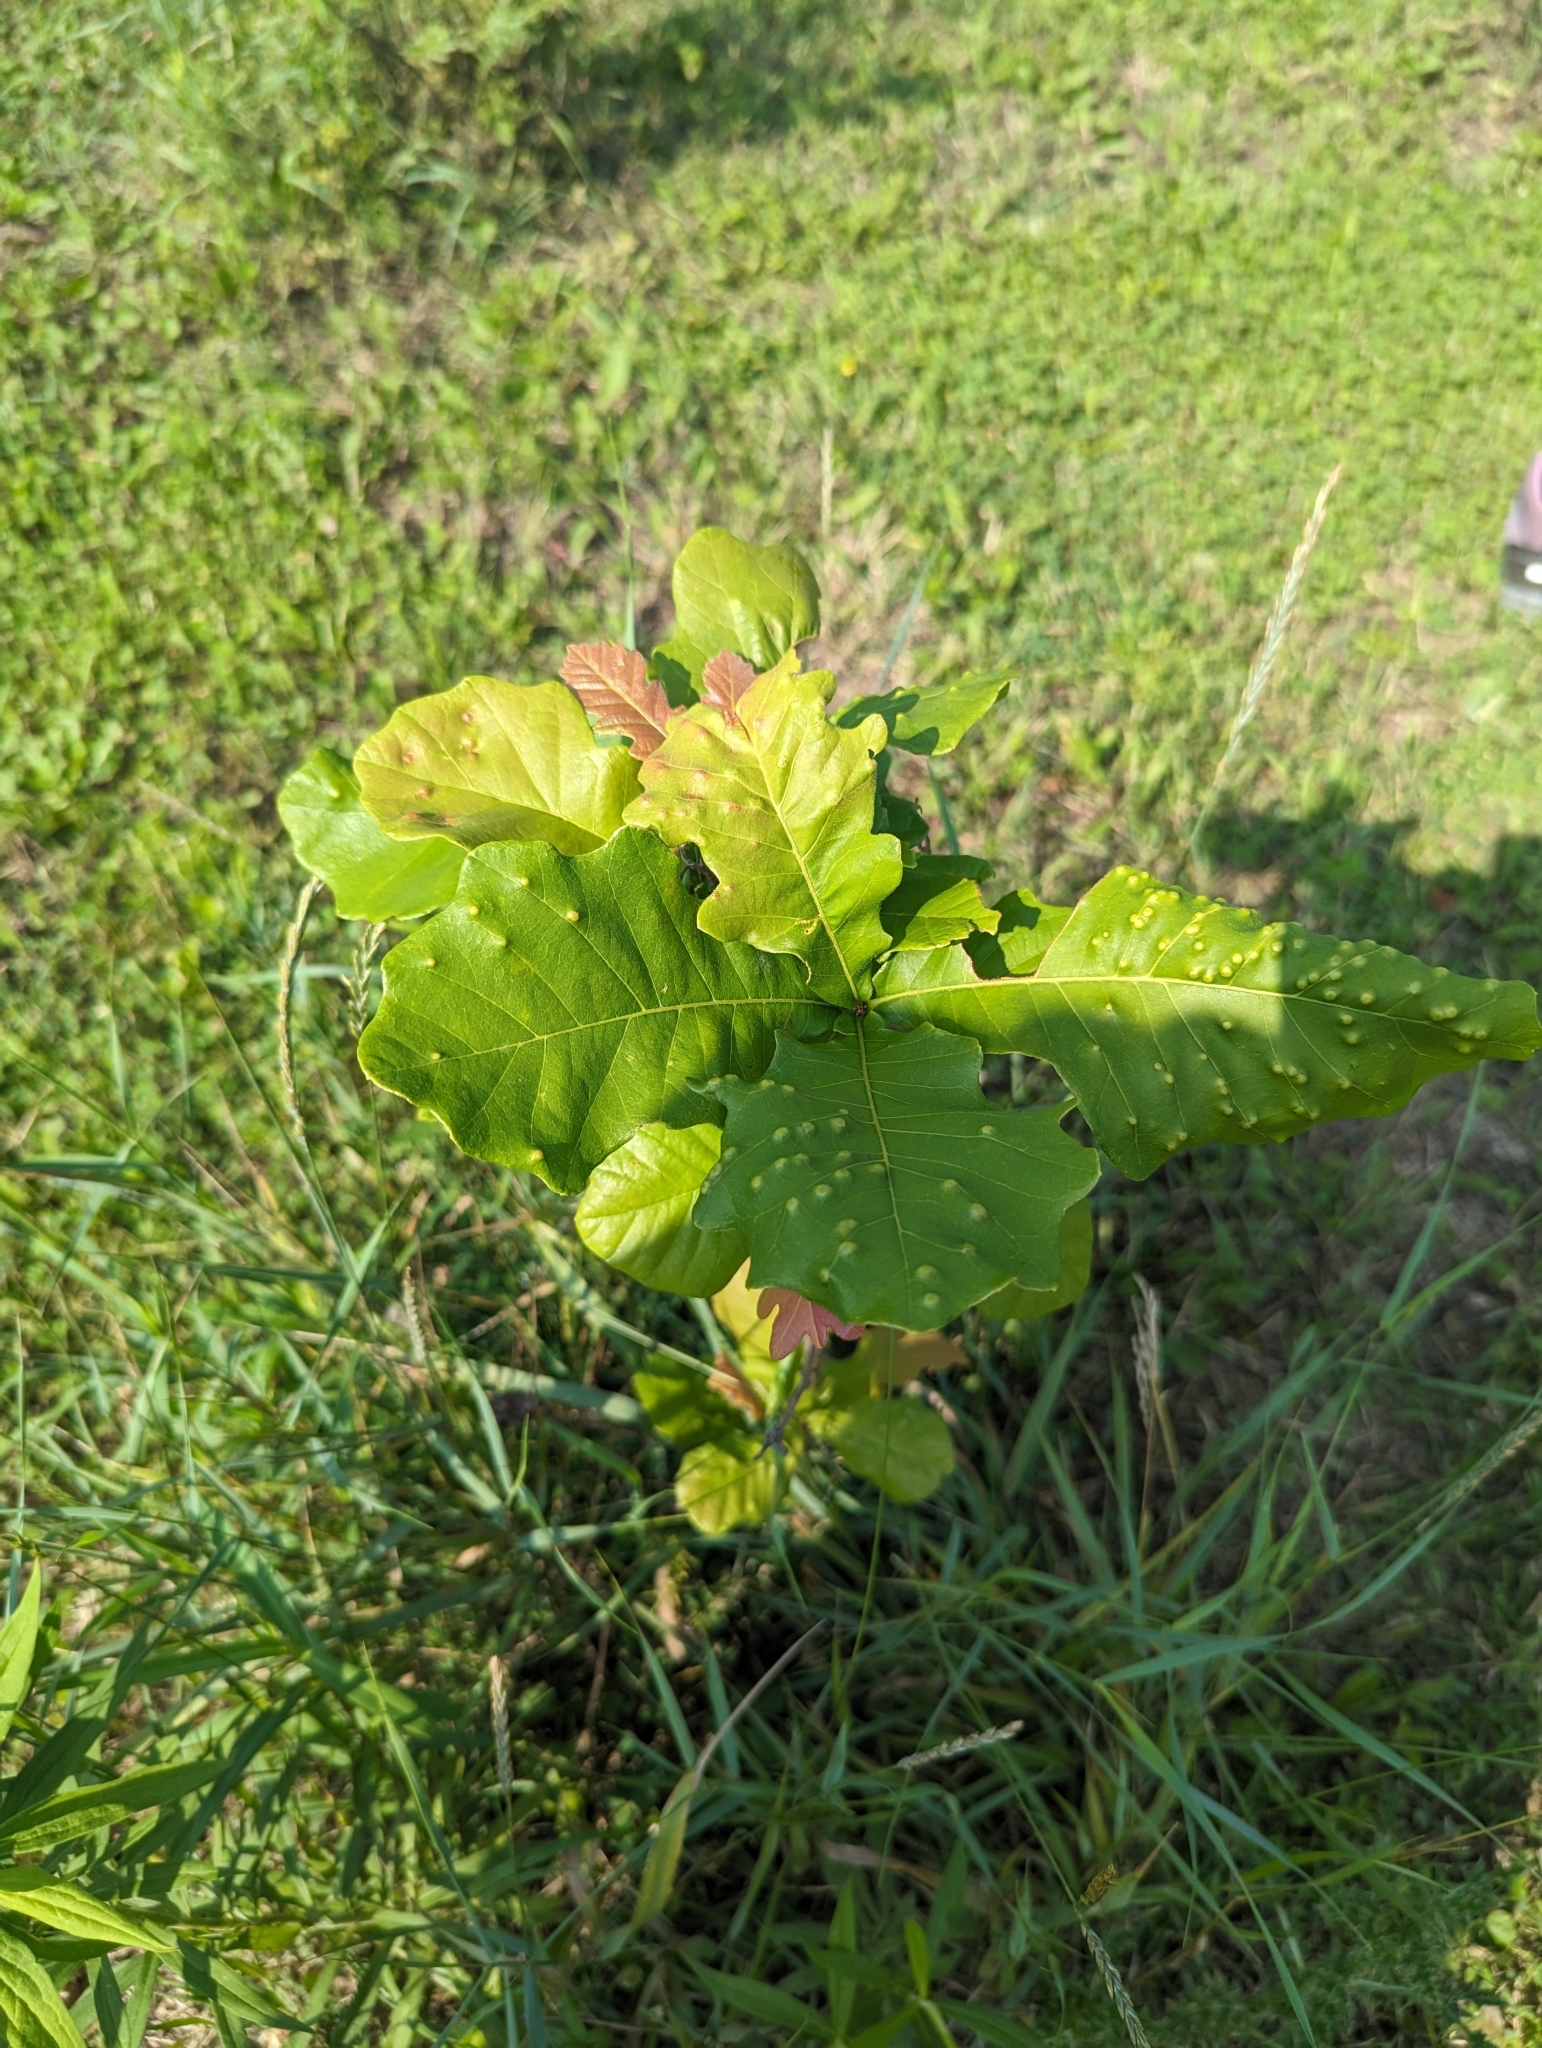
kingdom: Animalia
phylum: Arthropoda
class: Insecta
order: Hymenoptera
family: Cynipidae
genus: Neuroterus
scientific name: Neuroterus quercusverrucarum
